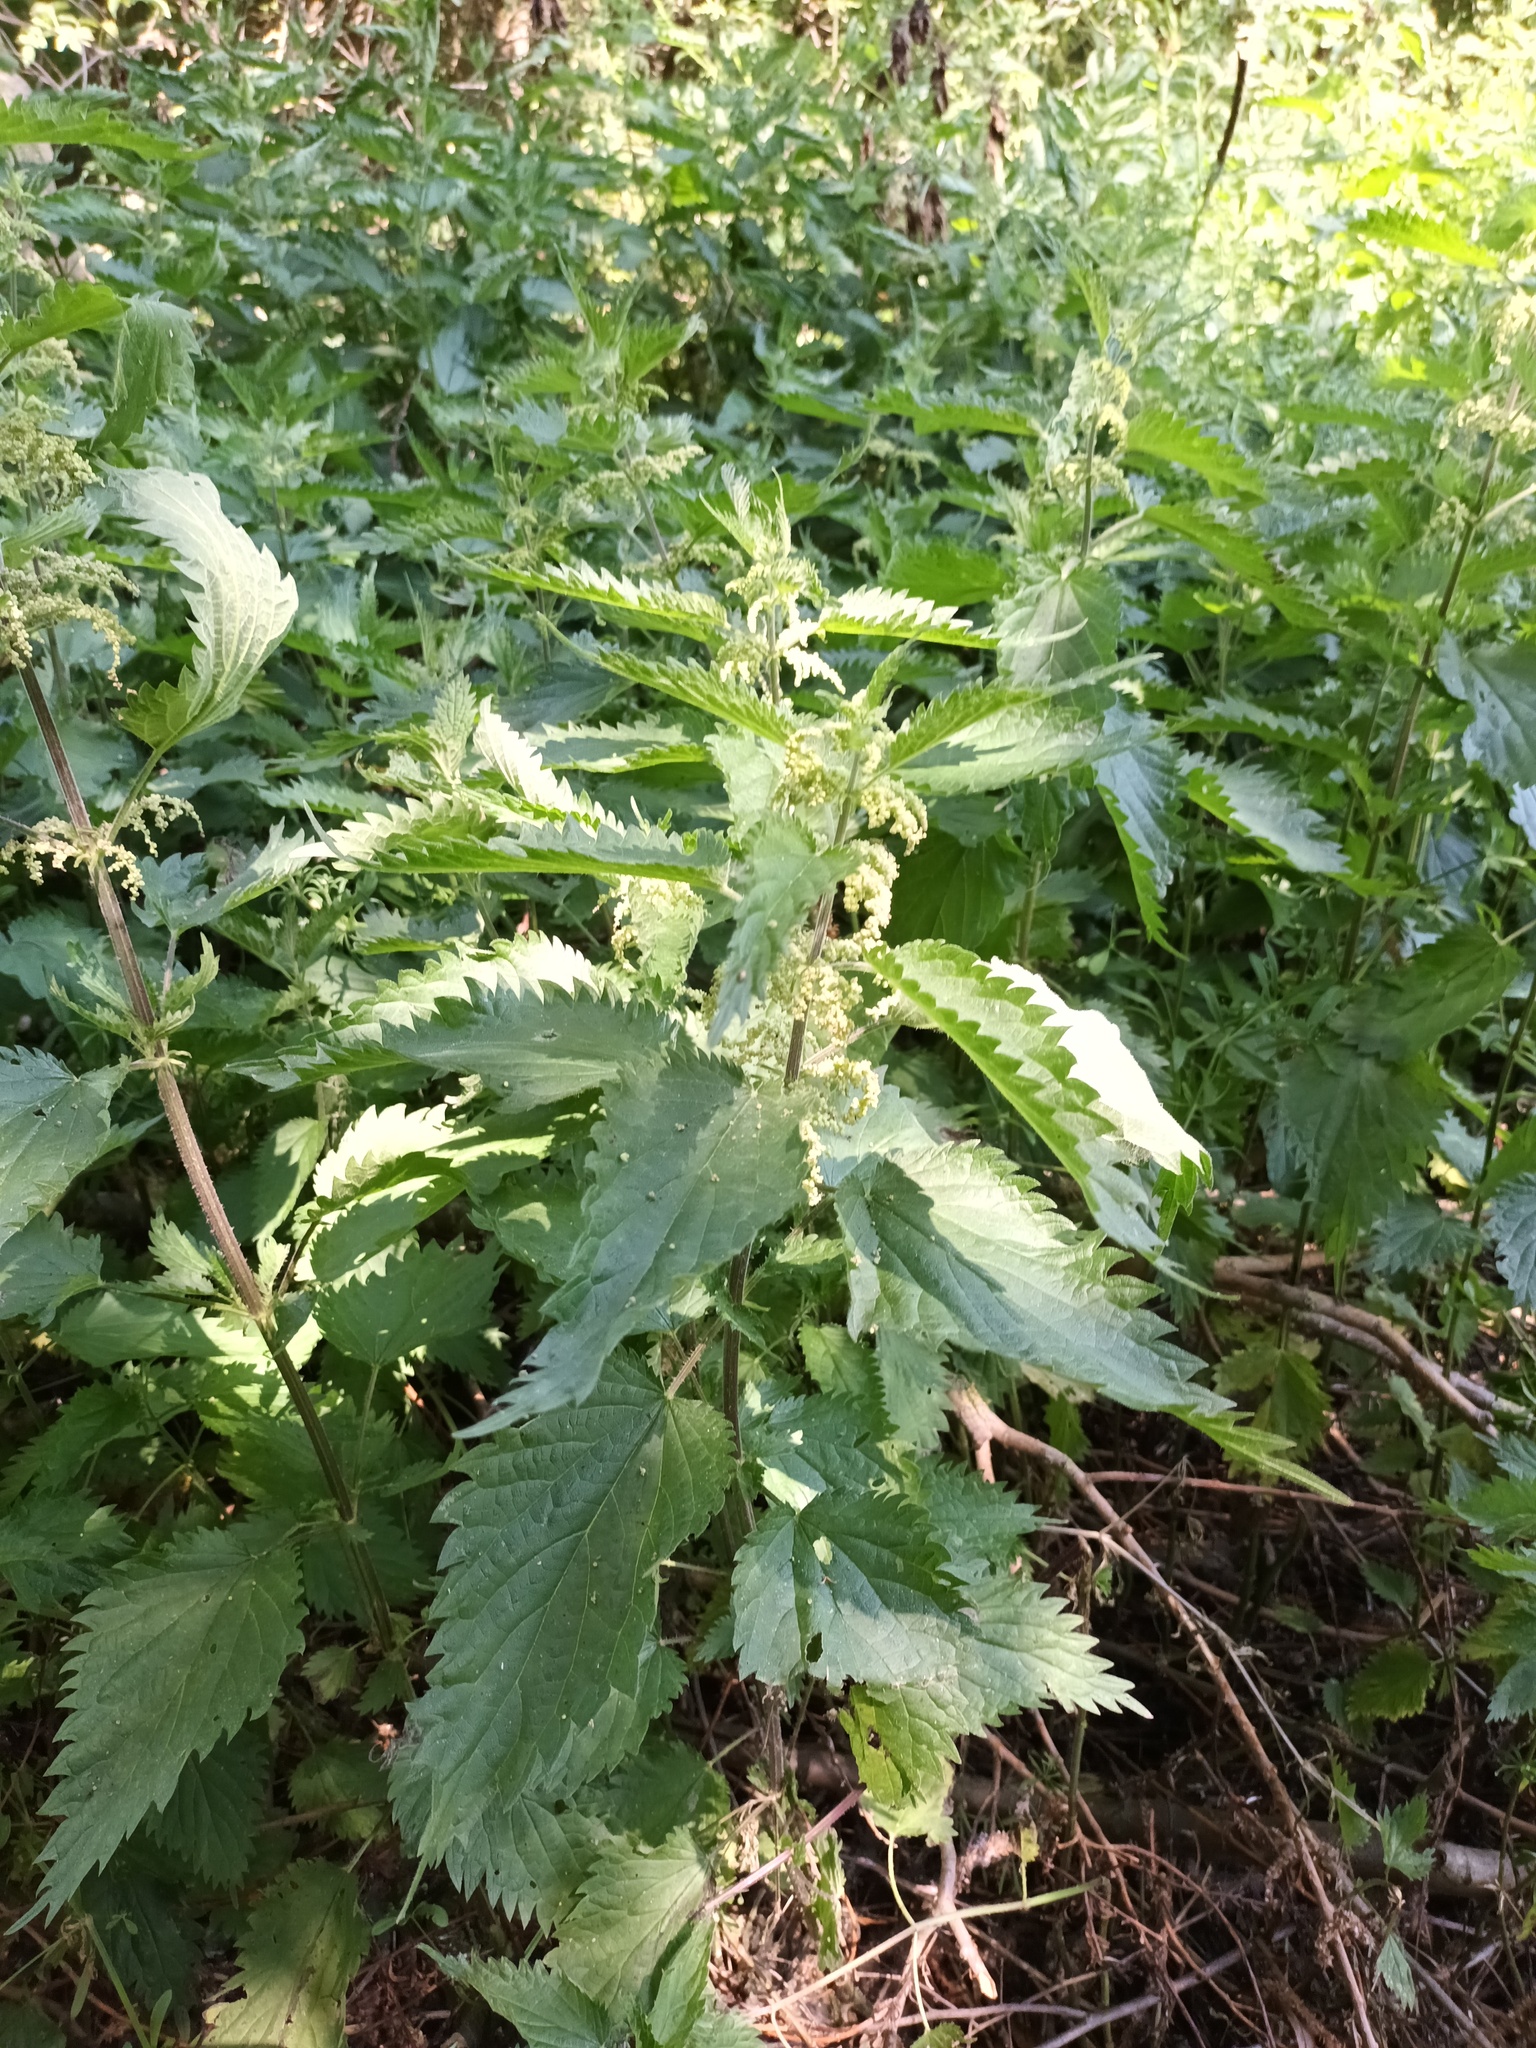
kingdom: Plantae
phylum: Tracheophyta
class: Magnoliopsida
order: Rosales
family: Urticaceae
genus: Urtica
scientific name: Urtica dioica
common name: Common nettle
